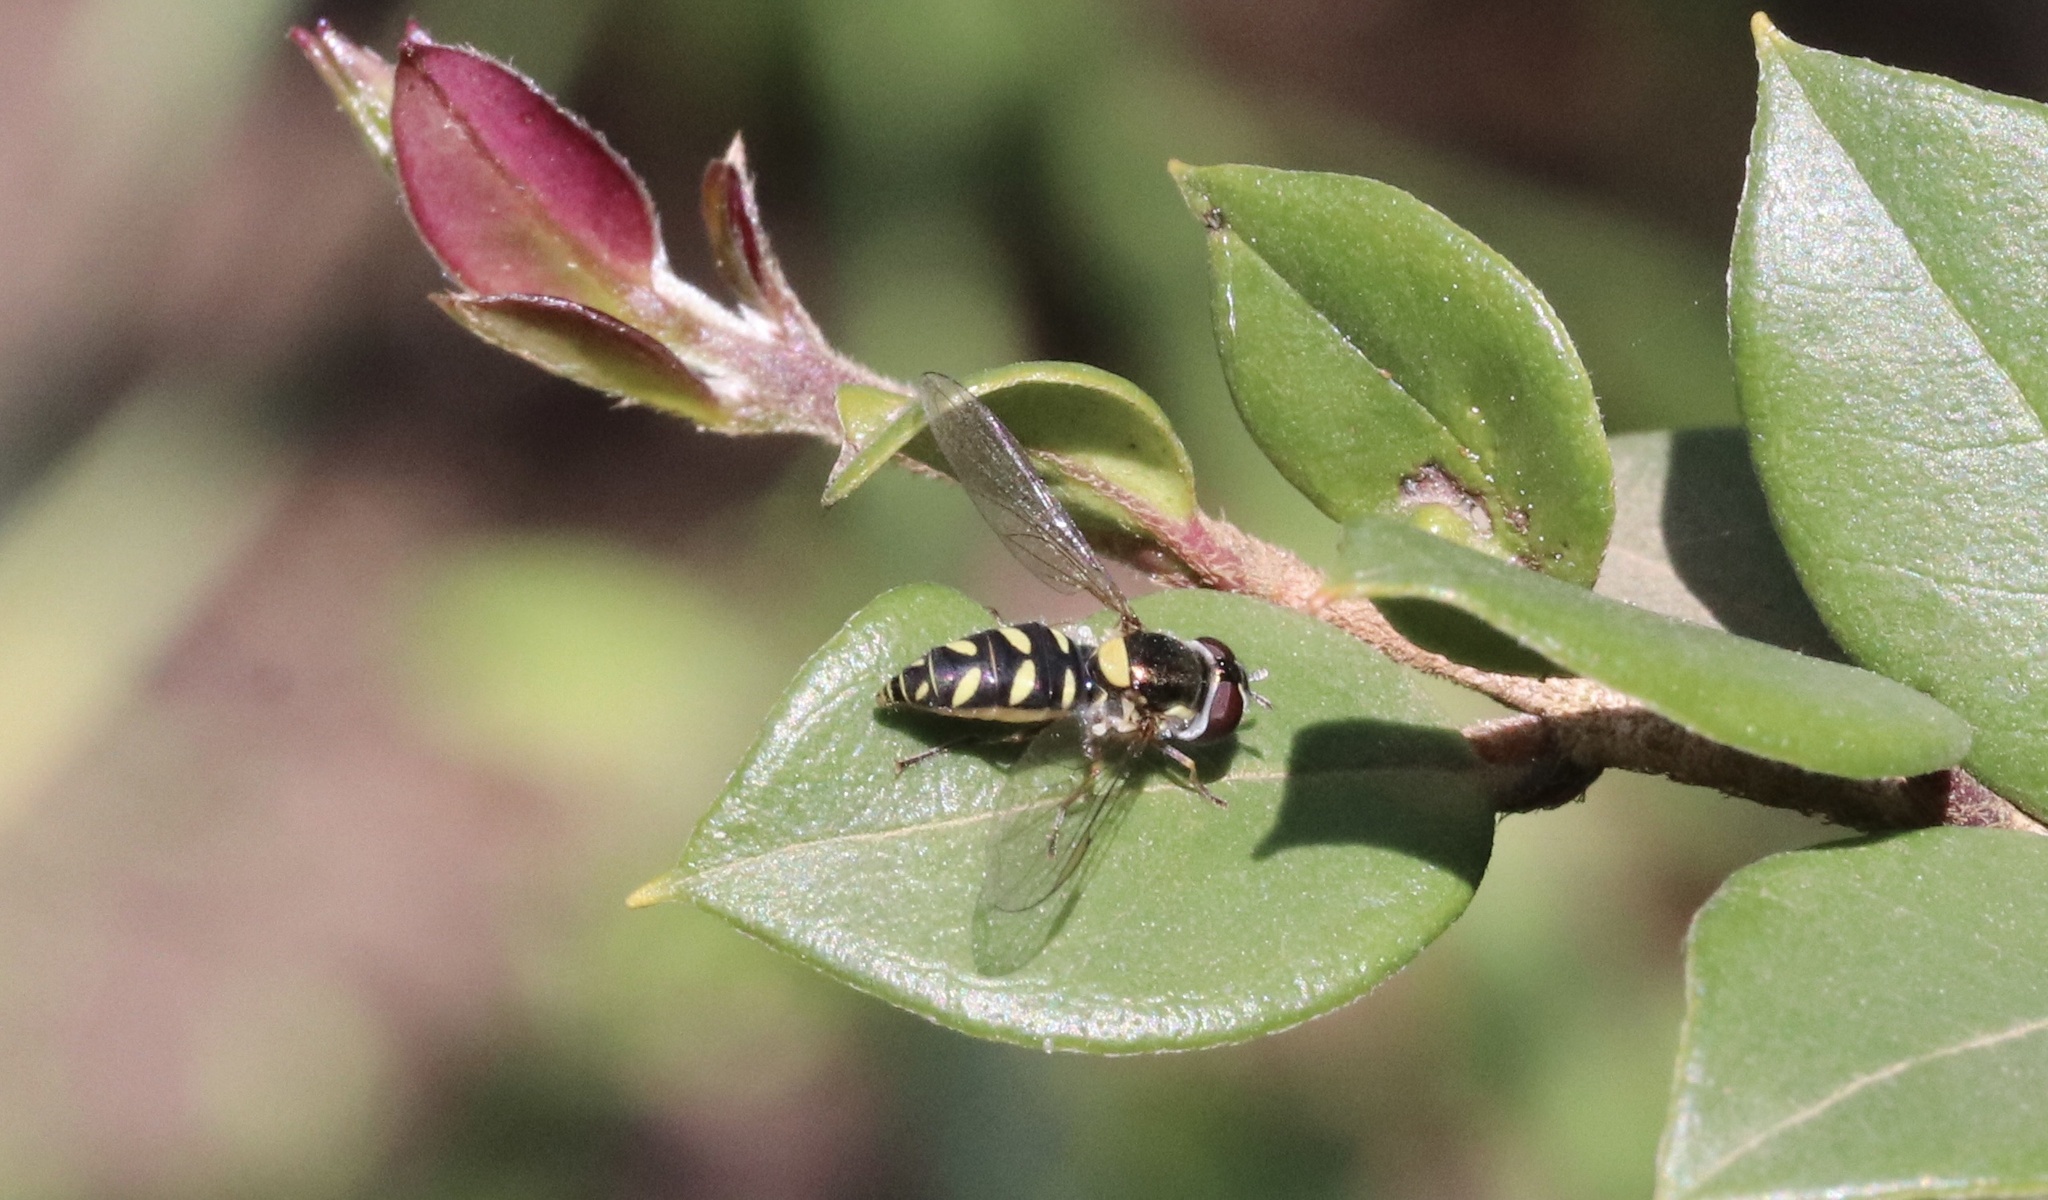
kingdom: Animalia
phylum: Arthropoda
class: Insecta
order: Diptera
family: Syrphidae
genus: Allograpta
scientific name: Allograpta hortensis
